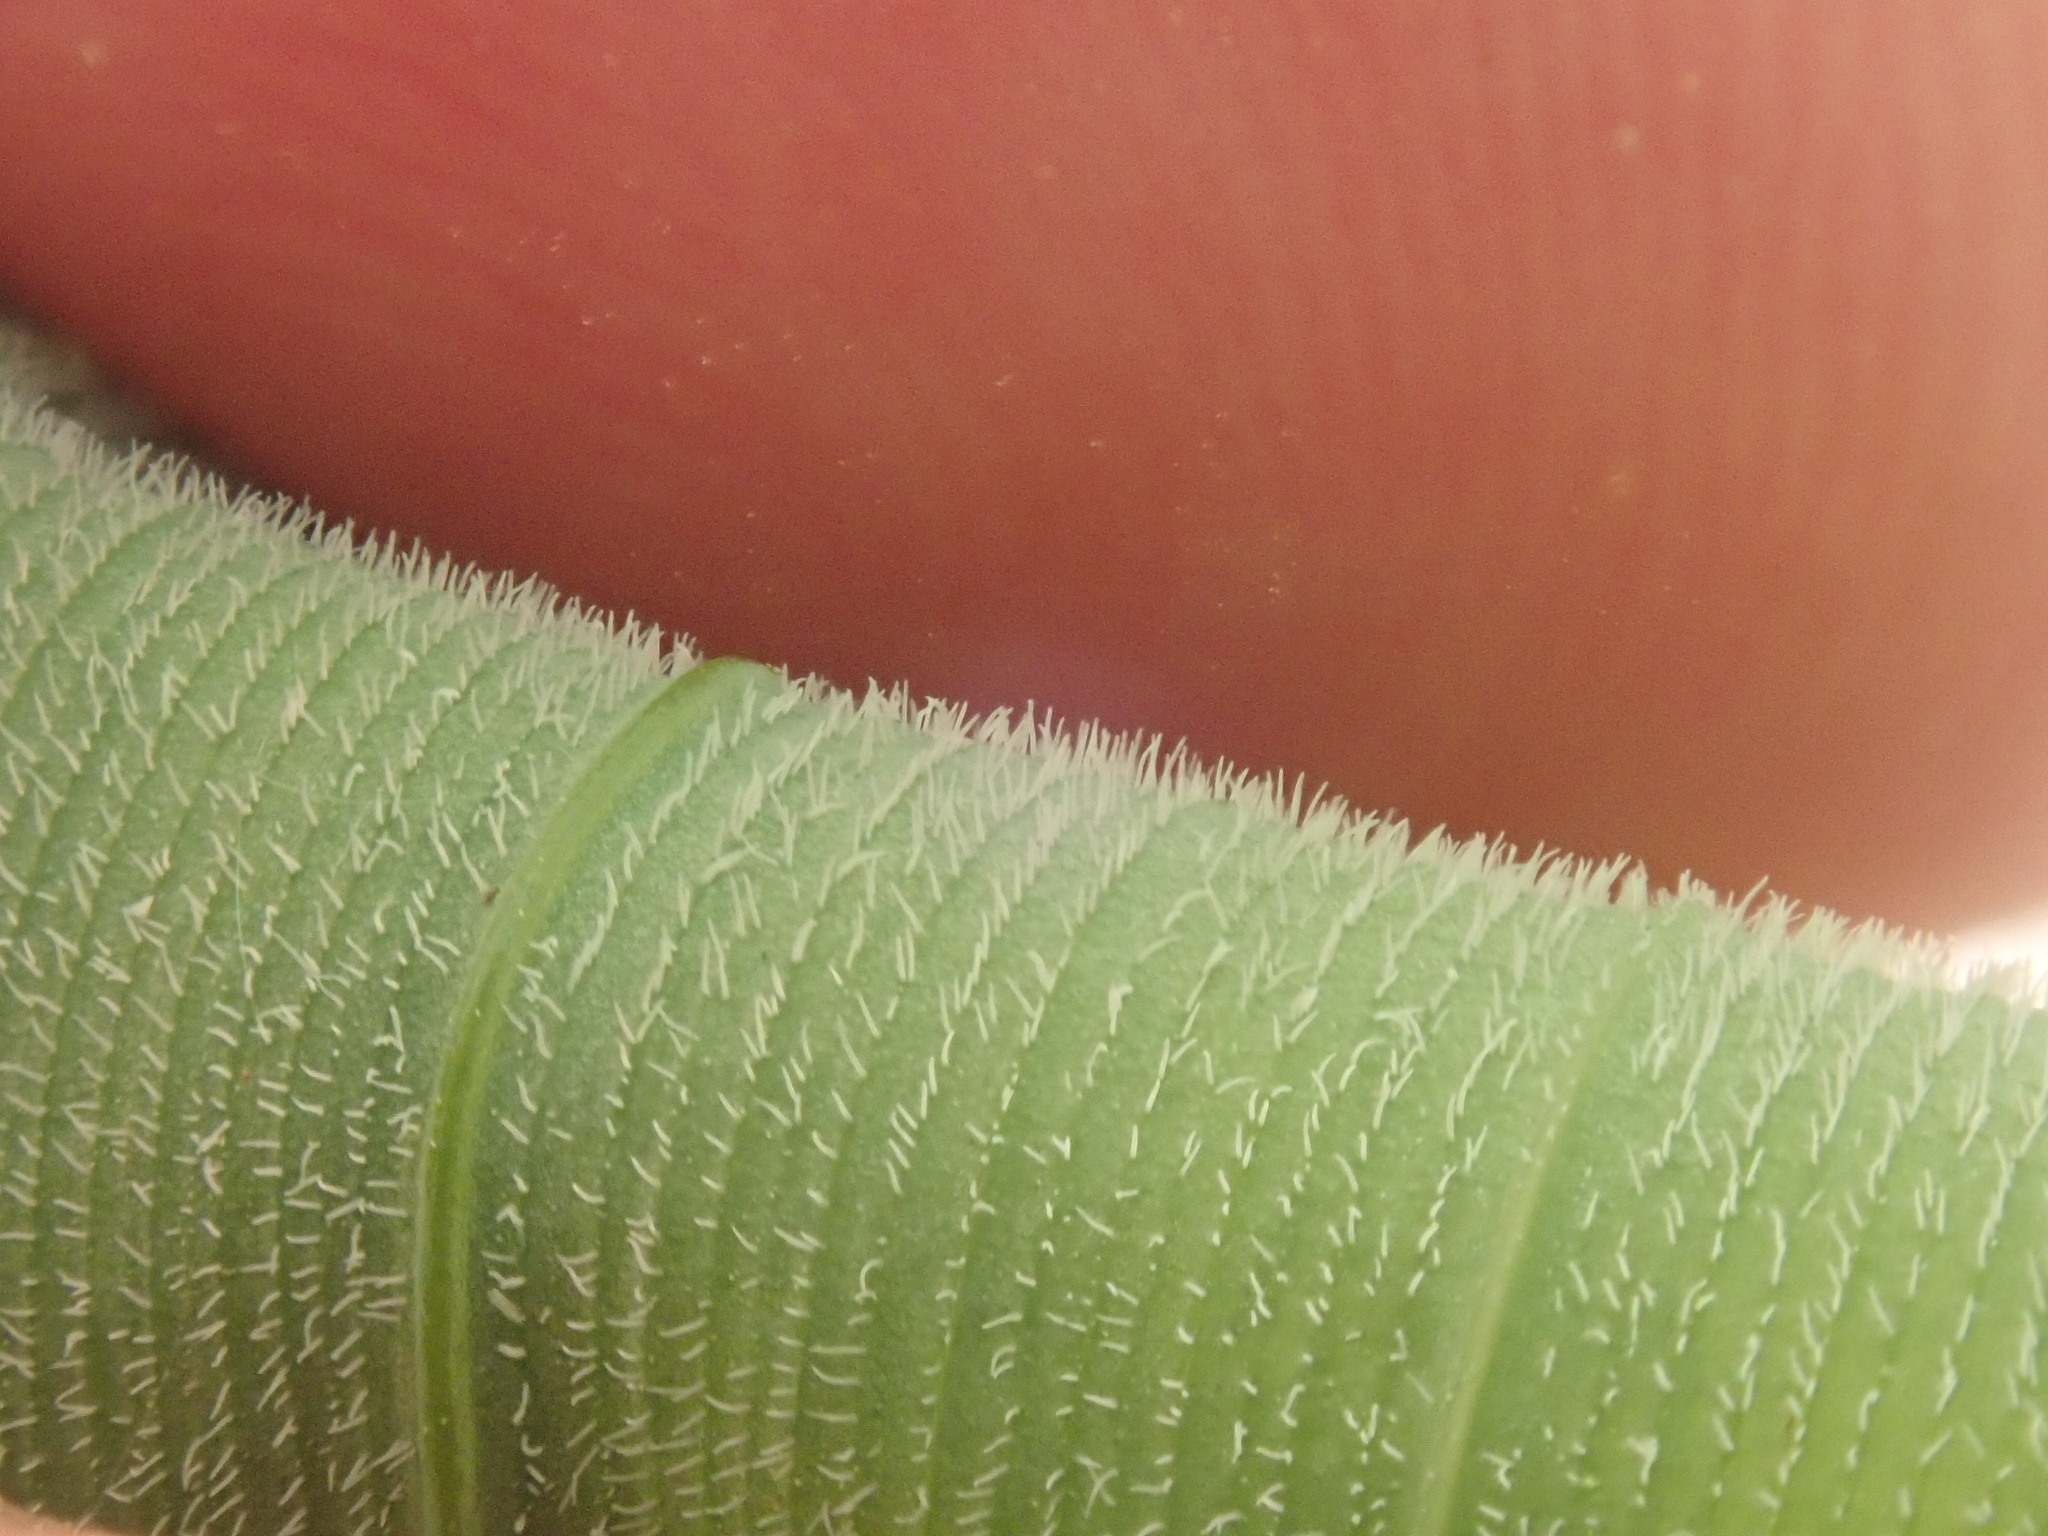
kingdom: Plantae
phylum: Tracheophyta
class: Liliopsida
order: Asparagales
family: Asparagaceae
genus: Polygonatum
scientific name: Polygonatum pubescens
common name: Downy solomon's seal
